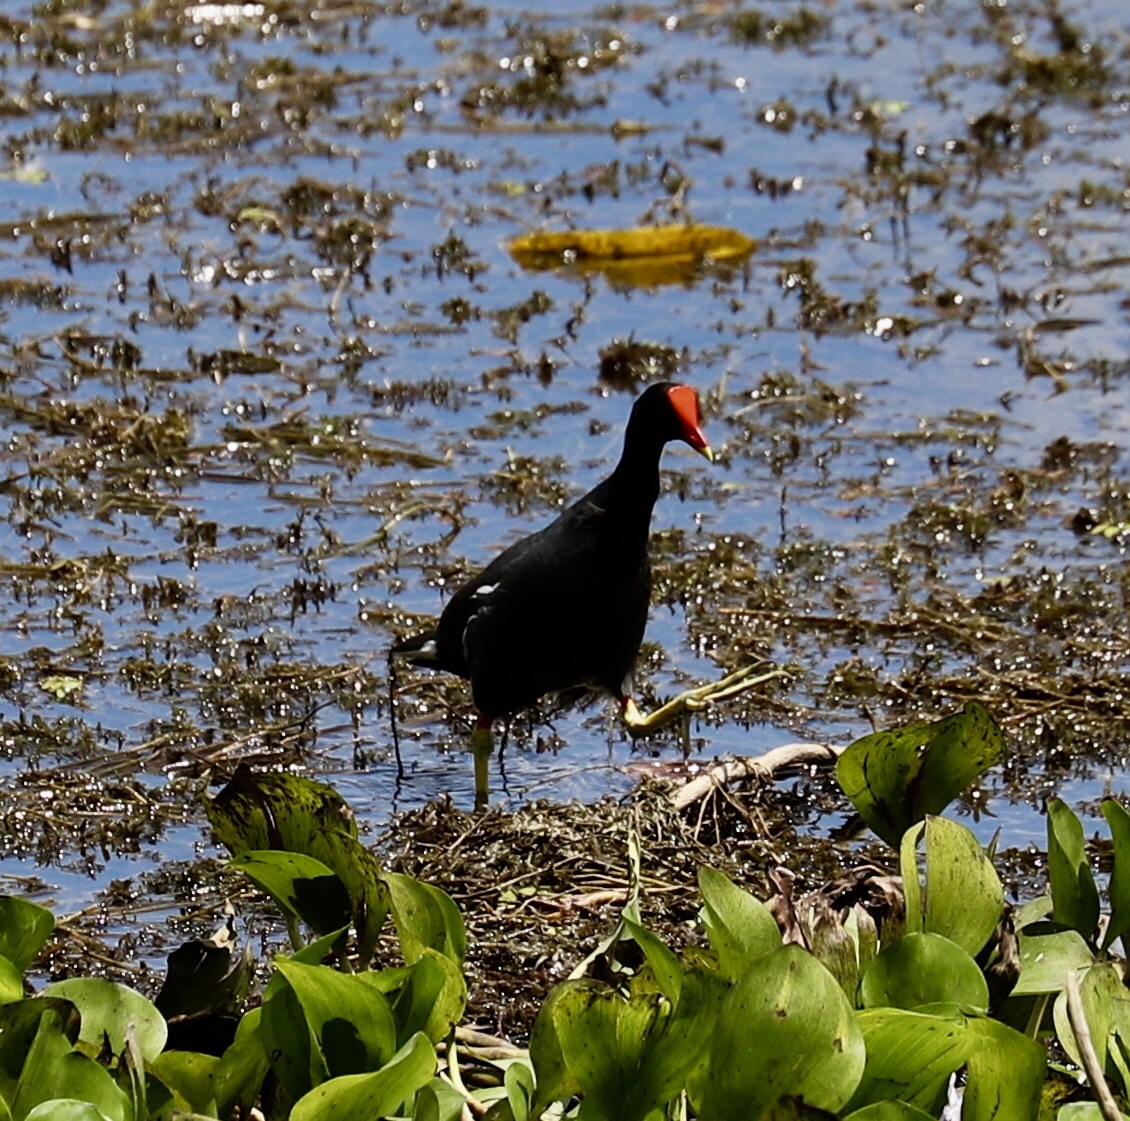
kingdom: Animalia
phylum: Chordata
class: Aves
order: Gruiformes
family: Rallidae
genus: Gallinula
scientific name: Gallinula chloropus
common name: Common moorhen
